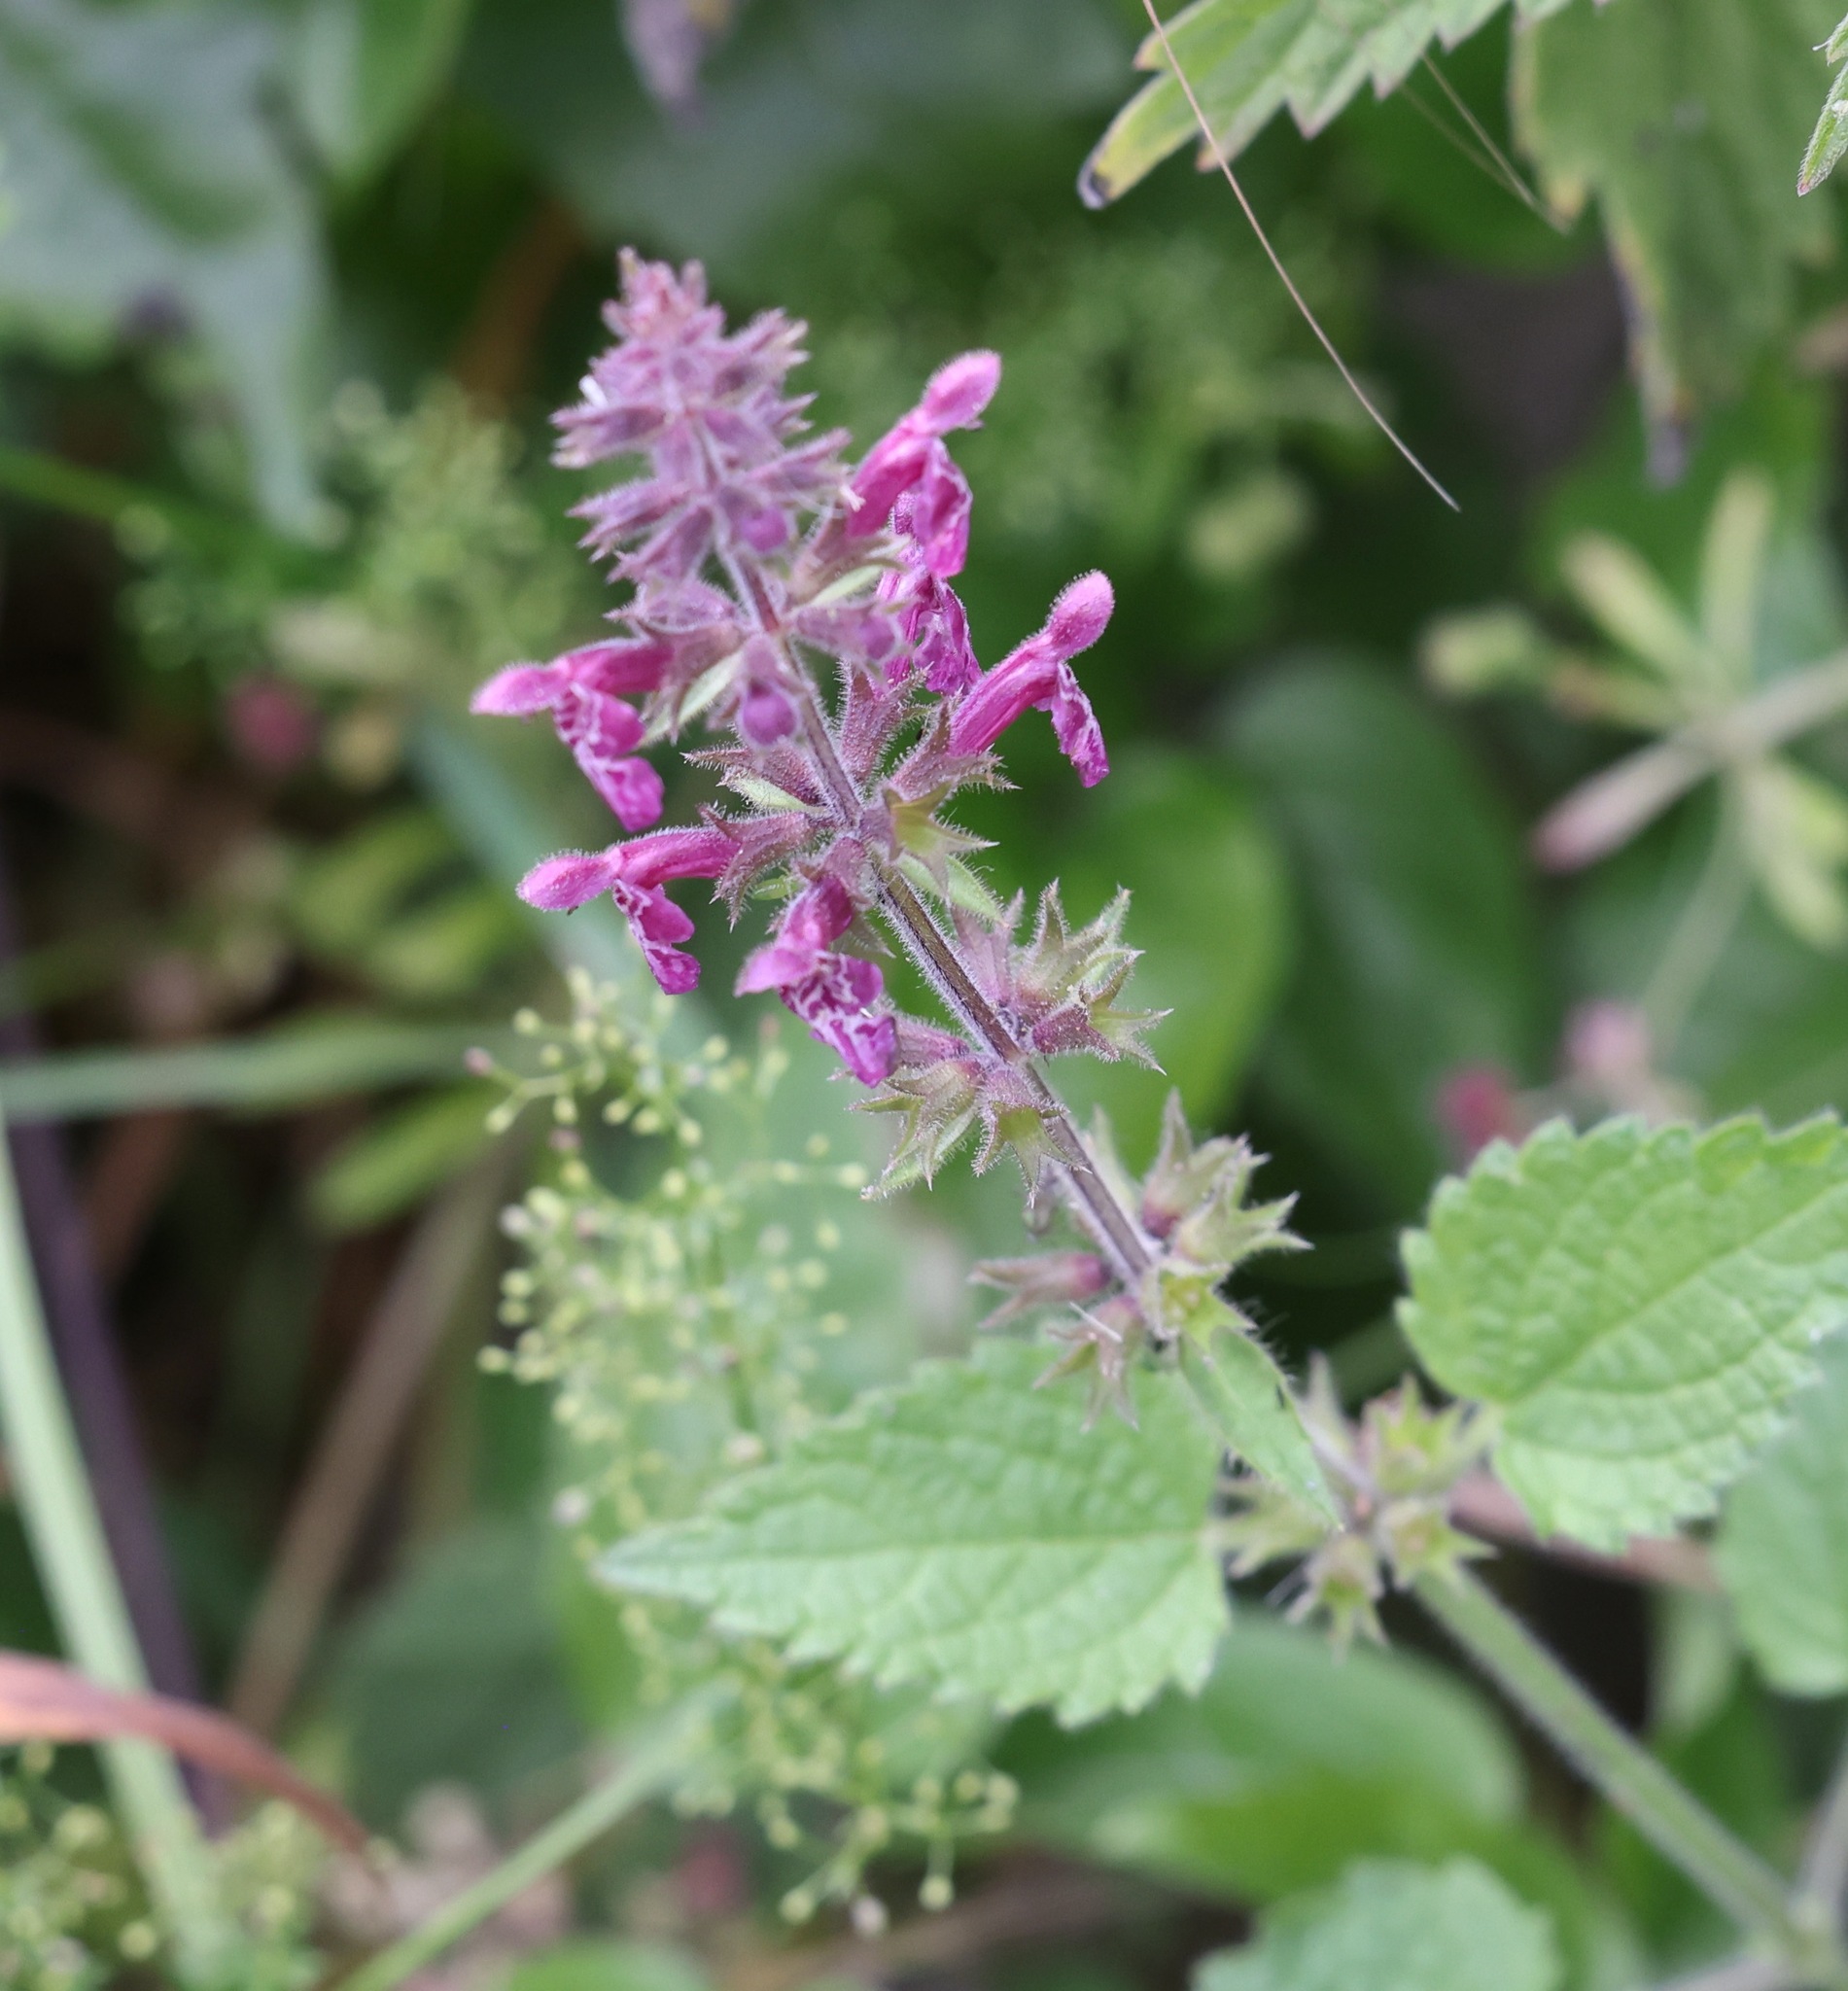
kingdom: Plantae
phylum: Tracheophyta
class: Magnoliopsida
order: Lamiales
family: Lamiaceae
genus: Stachys
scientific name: Stachys sylvatica
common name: Hedge woundwort
